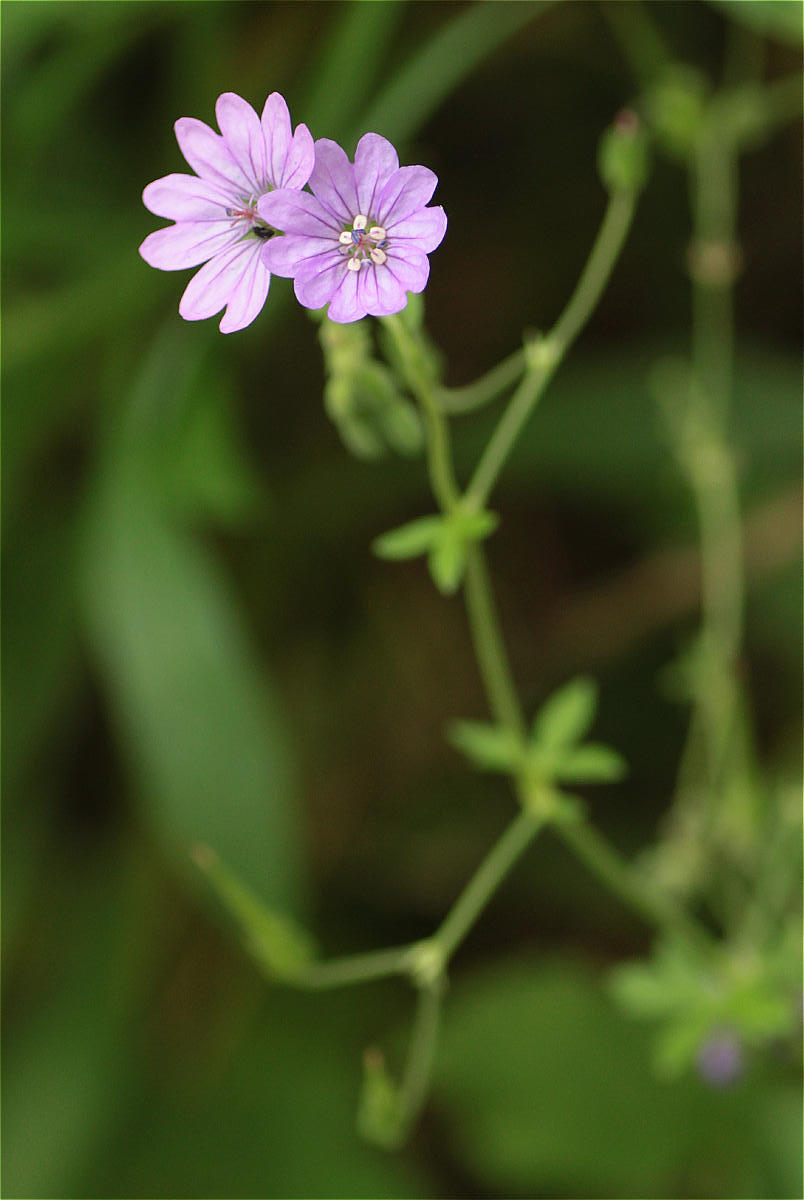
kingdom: Plantae
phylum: Tracheophyta
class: Magnoliopsida
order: Geraniales
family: Geraniaceae
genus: Geranium
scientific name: Geranium pyrenaicum
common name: Hedgerow crane's-bill
